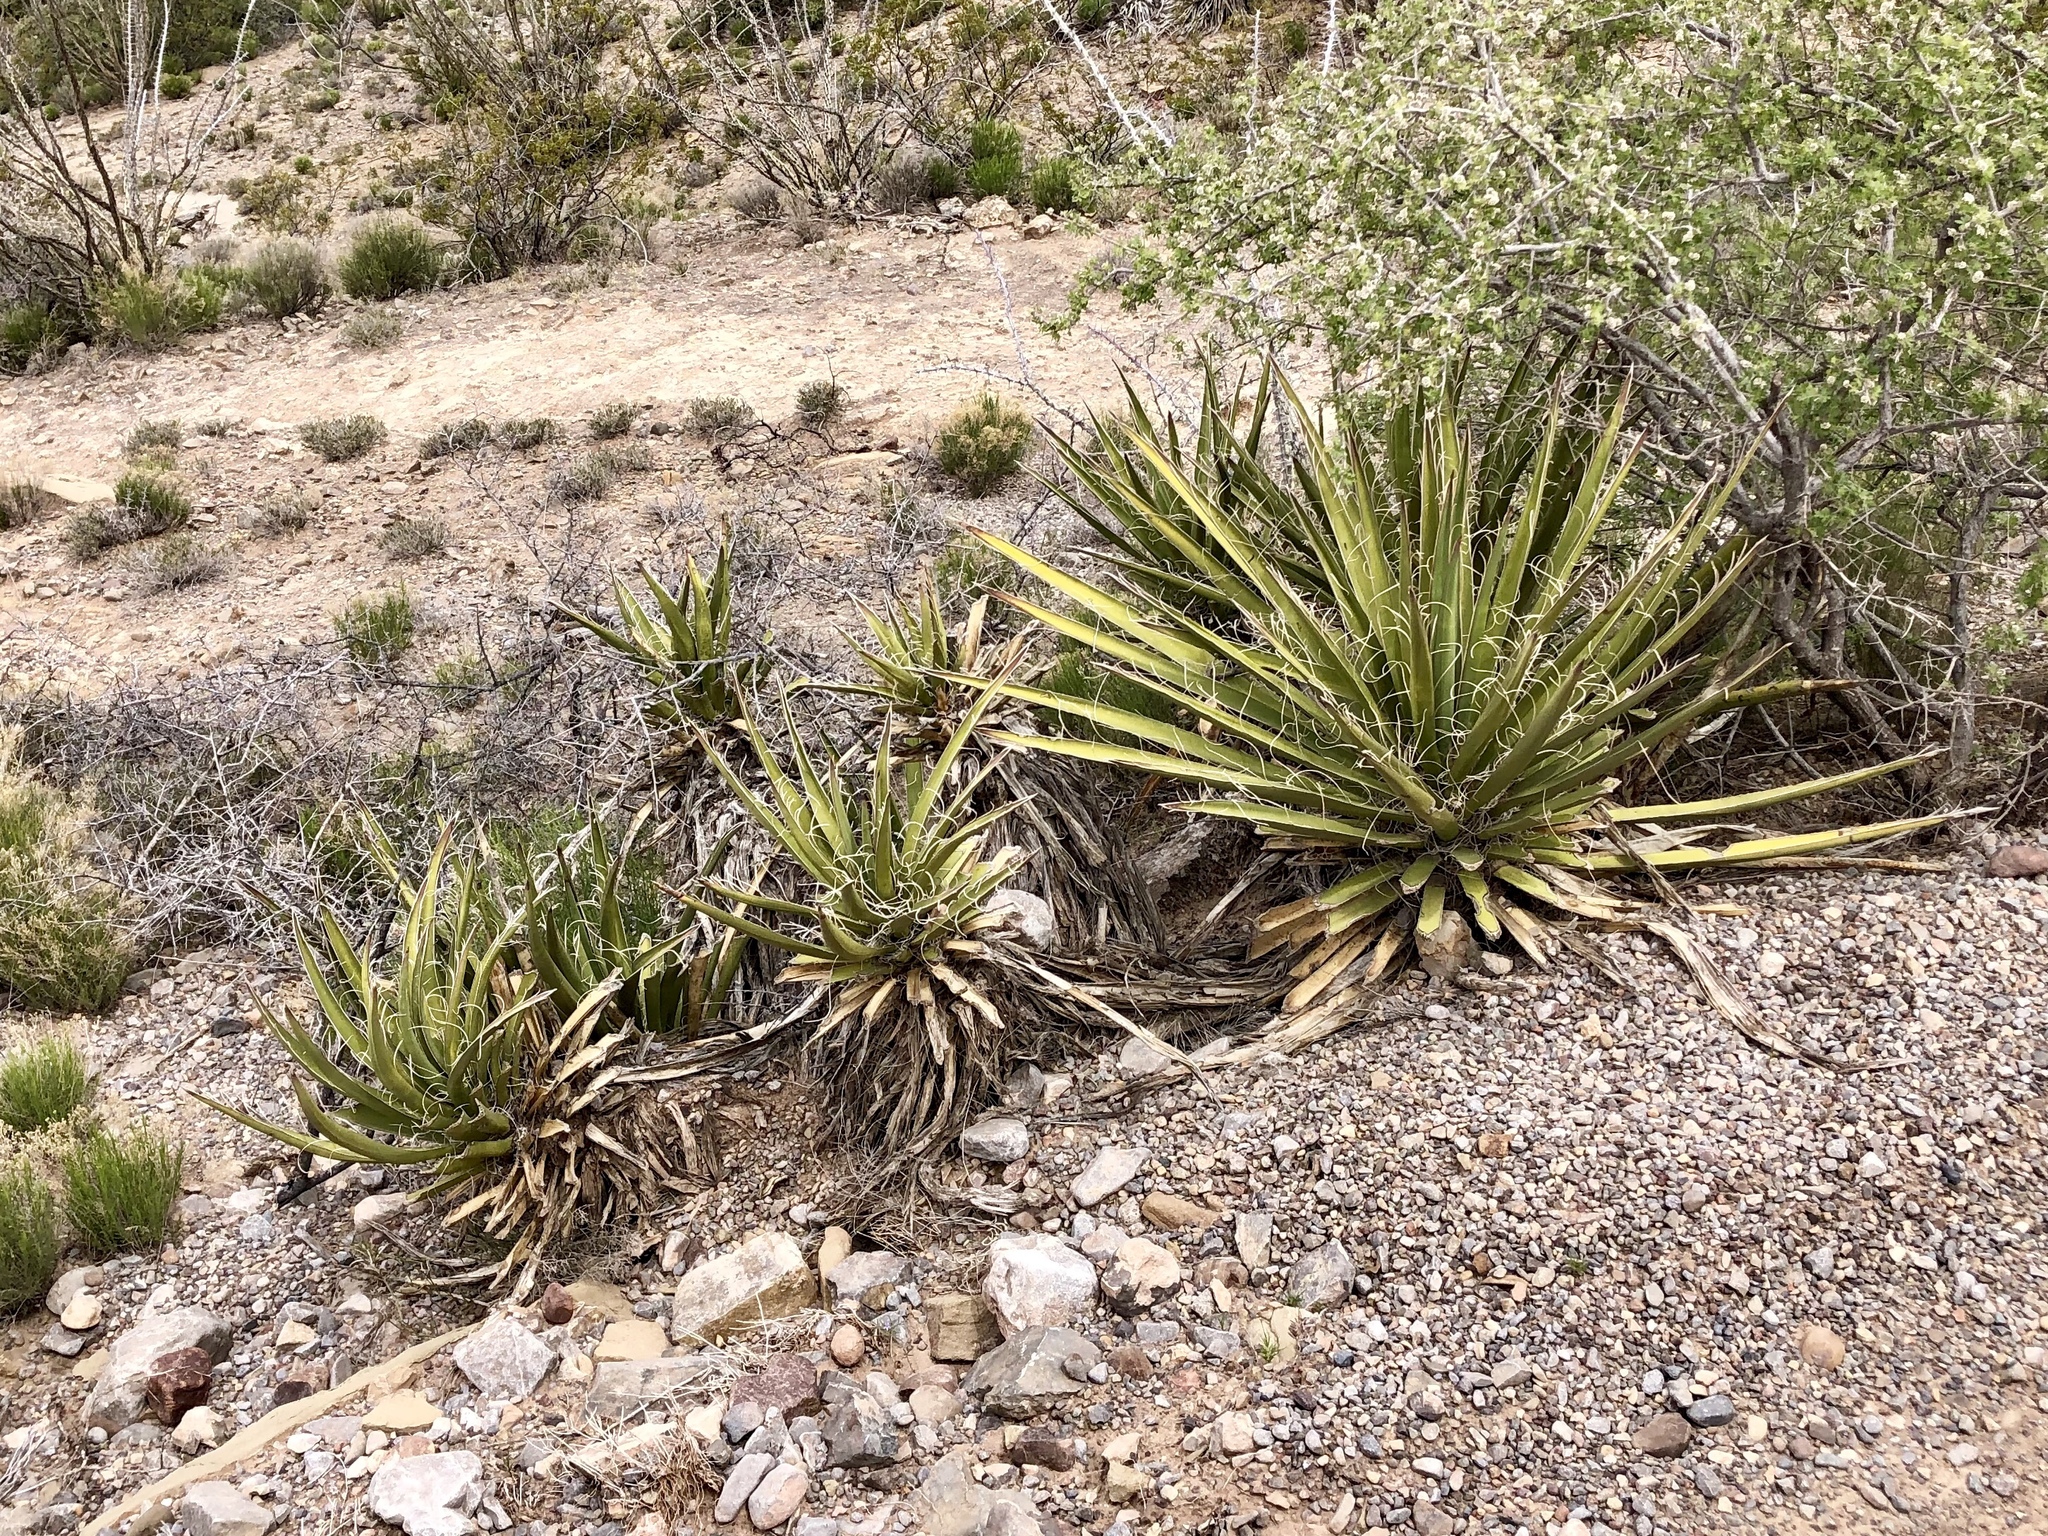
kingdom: Plantae
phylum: Tracheophyta
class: Liliopsida
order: Asparagales
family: Asparagaceae
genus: Yucca
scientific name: Yucca baccata
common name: Banana yucca
